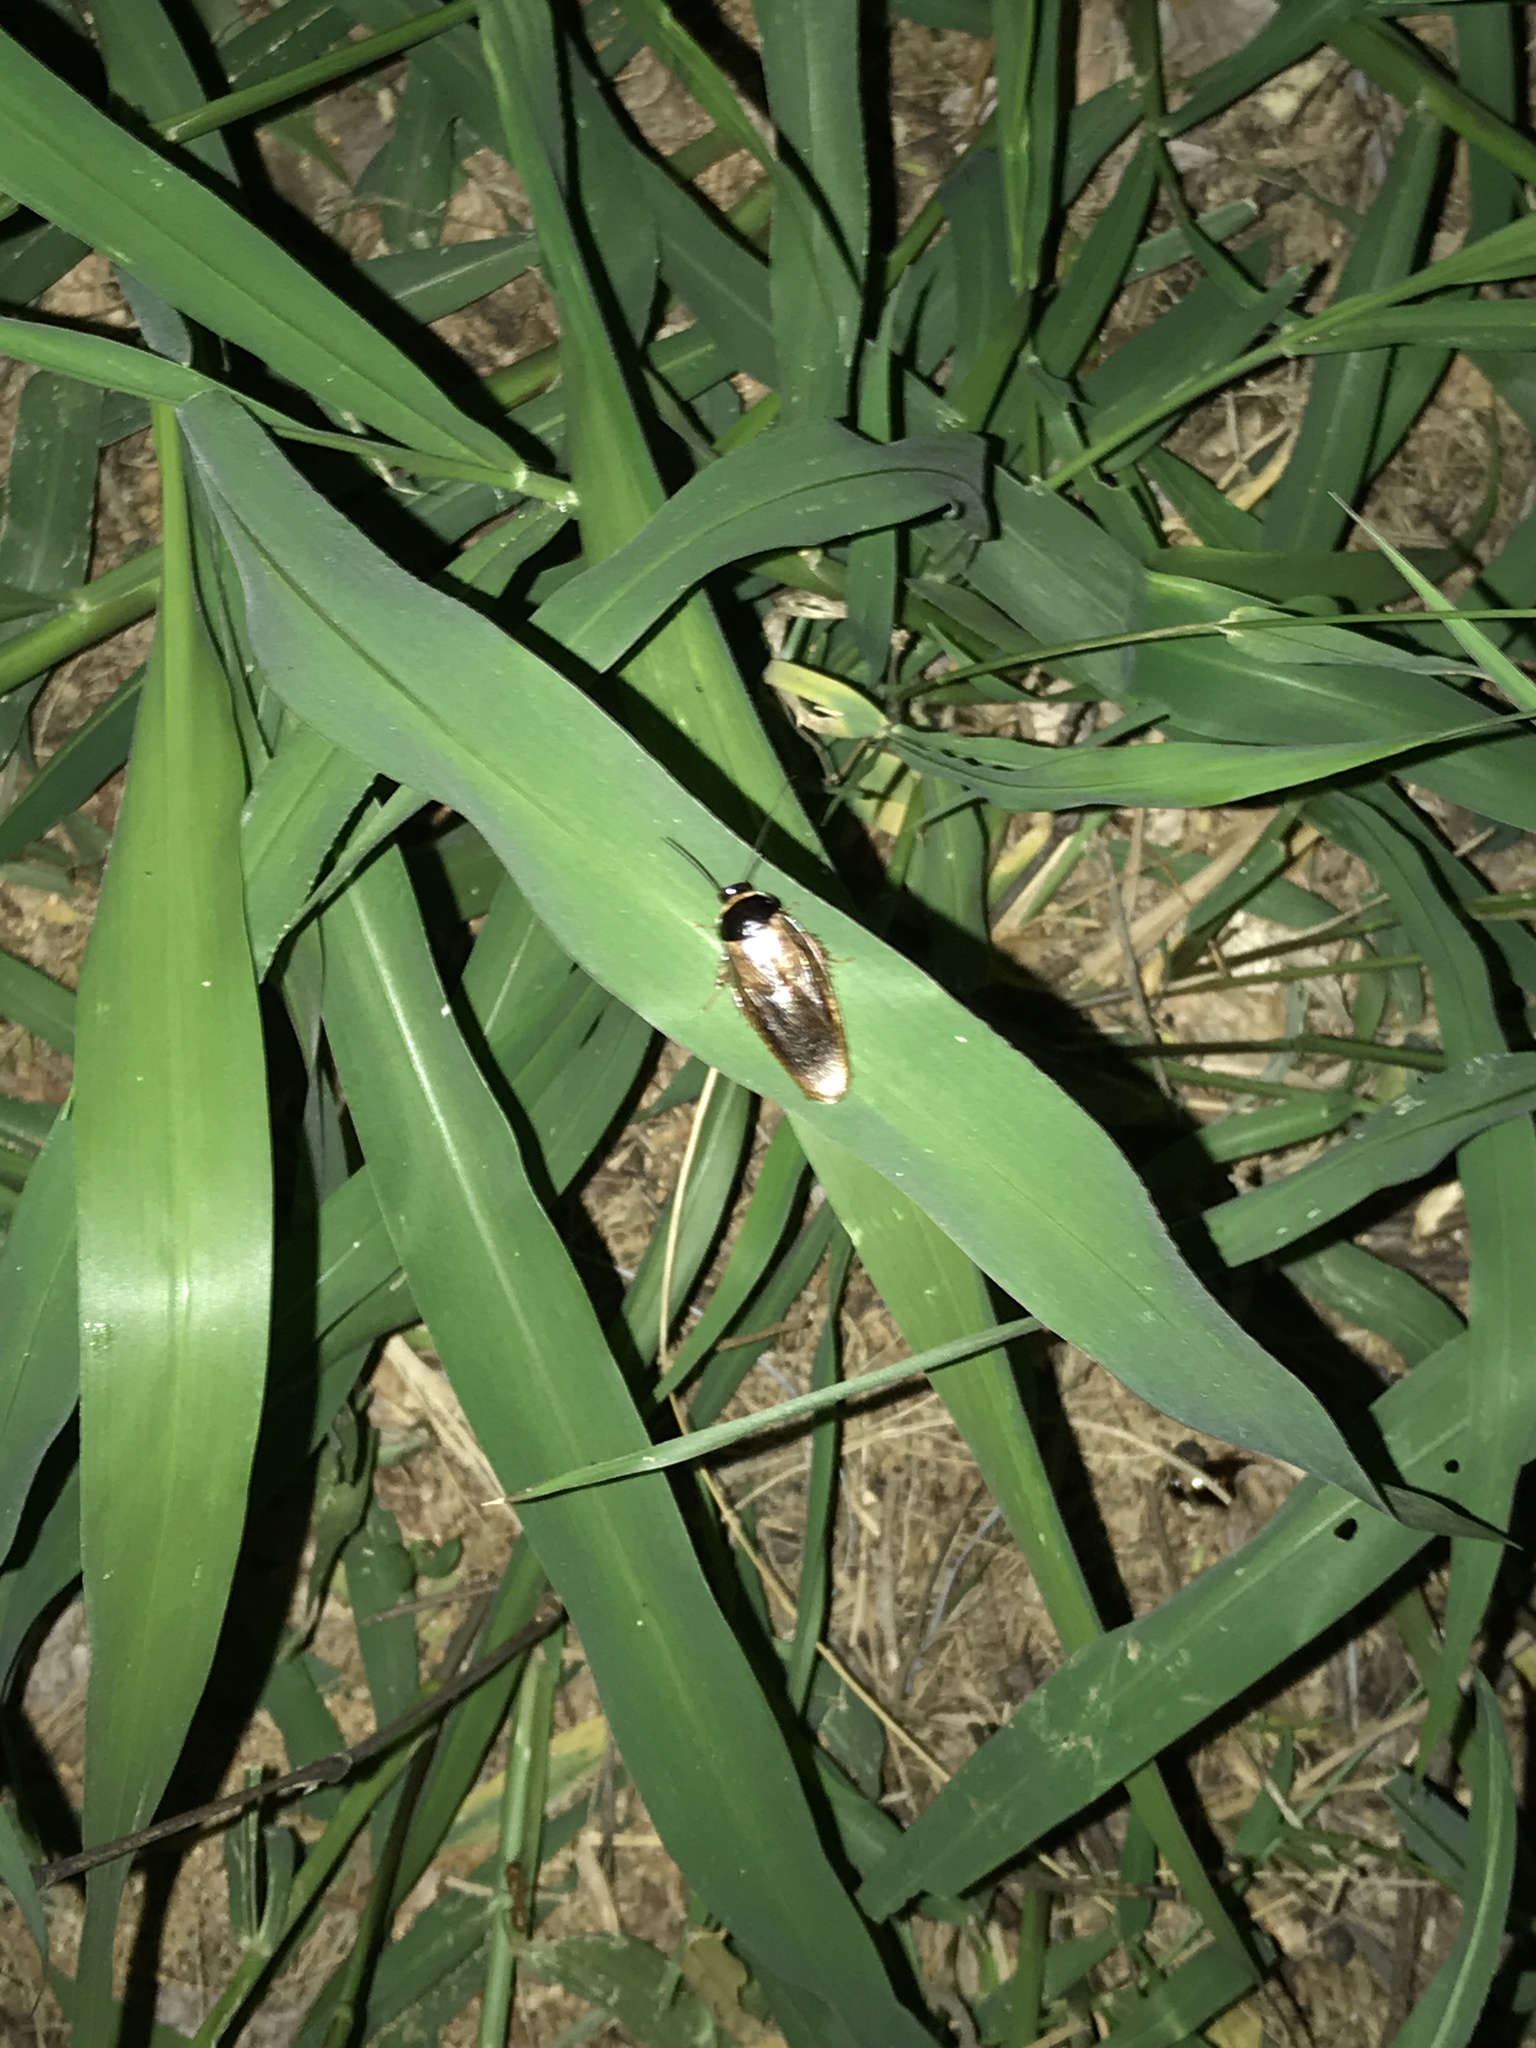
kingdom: Animalia
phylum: Arthropoda
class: Insecta
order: Blattodea
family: Blaberidae
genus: Pycnoscelus
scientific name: Pycnoscelus indicus
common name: Burrowing cockroach
